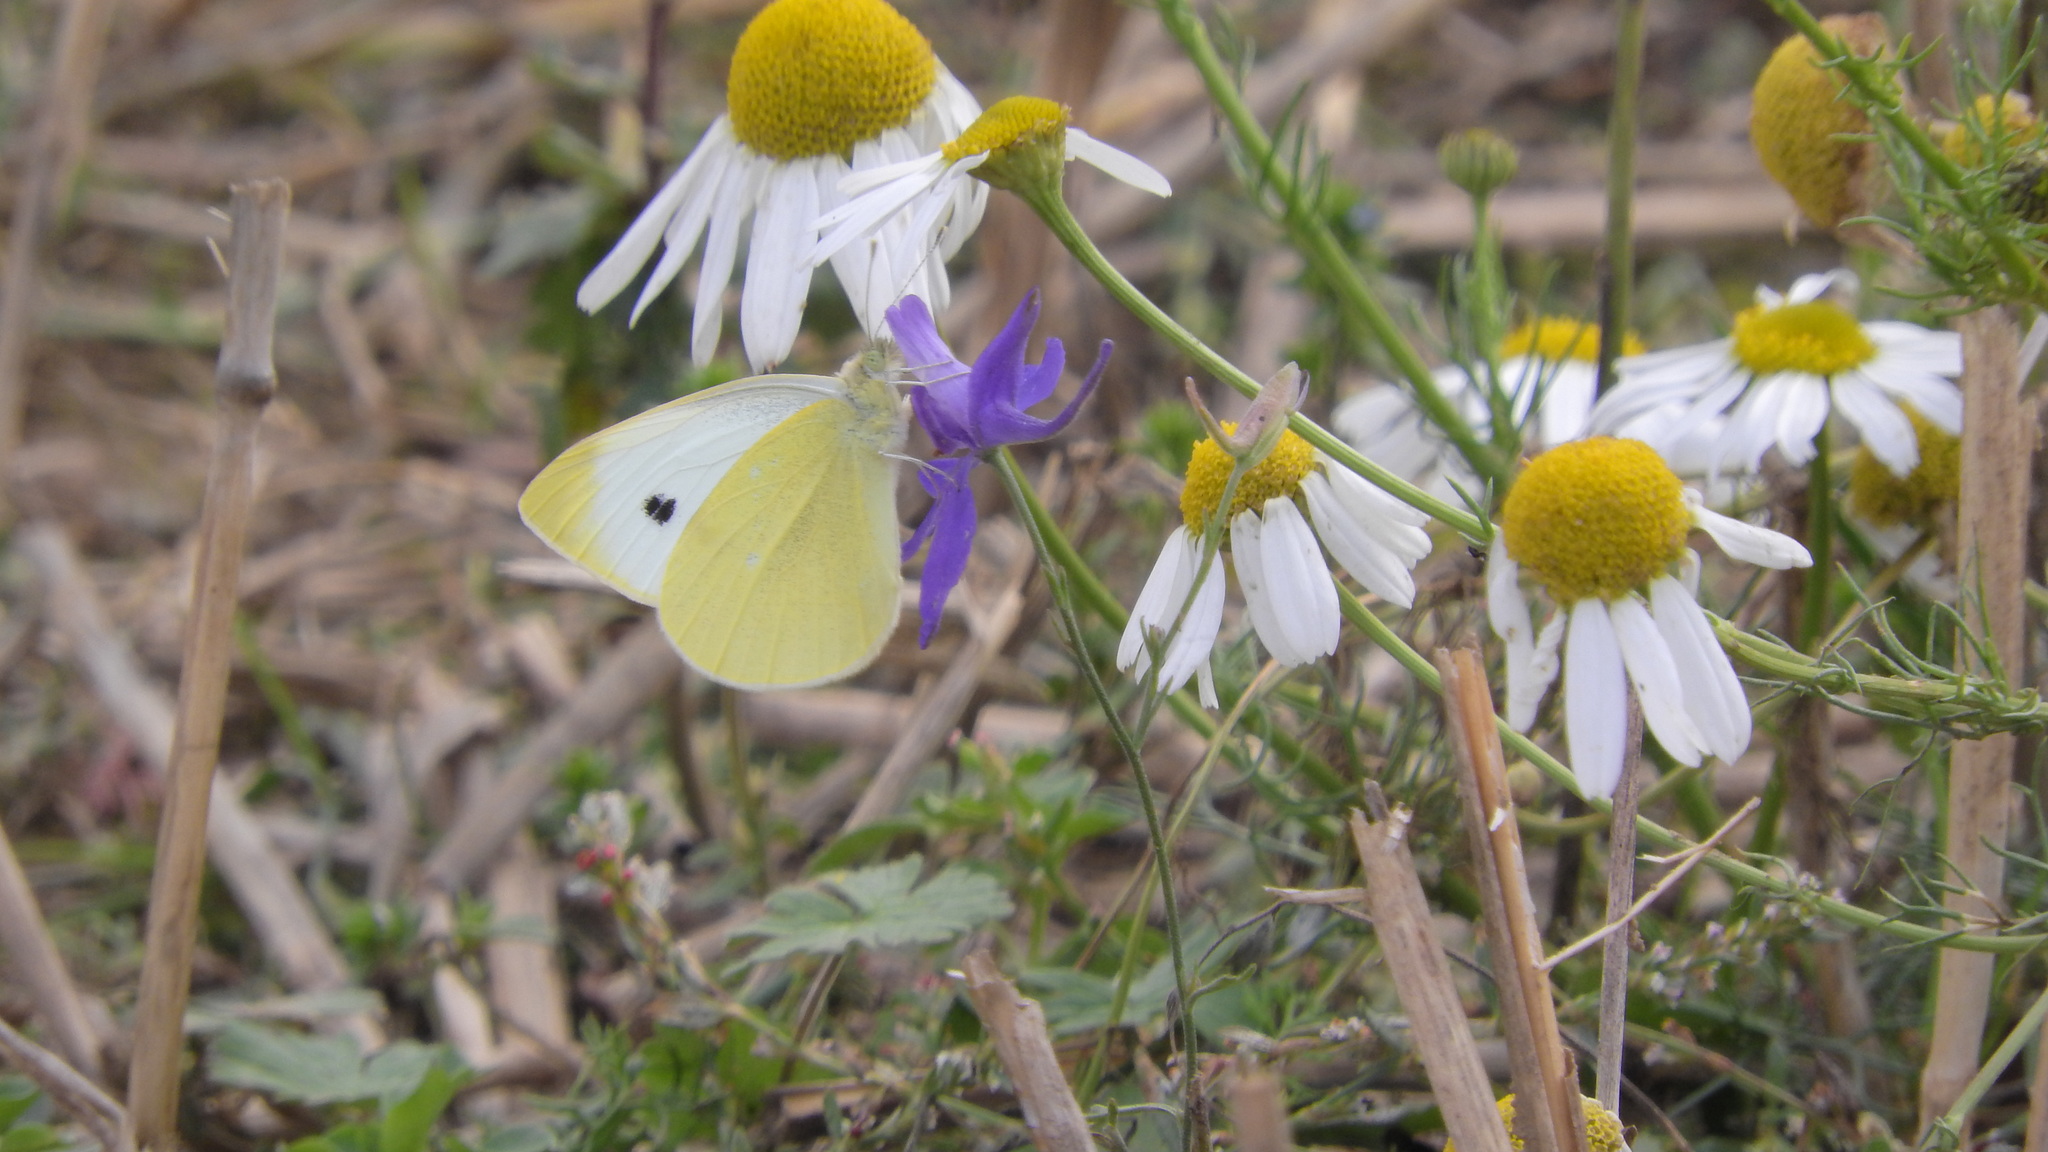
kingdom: Animalia
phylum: Arthropoda
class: Insecta
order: Lepidoptera
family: Pieridae
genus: Pieris
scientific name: Pieris rapae
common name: Small white
